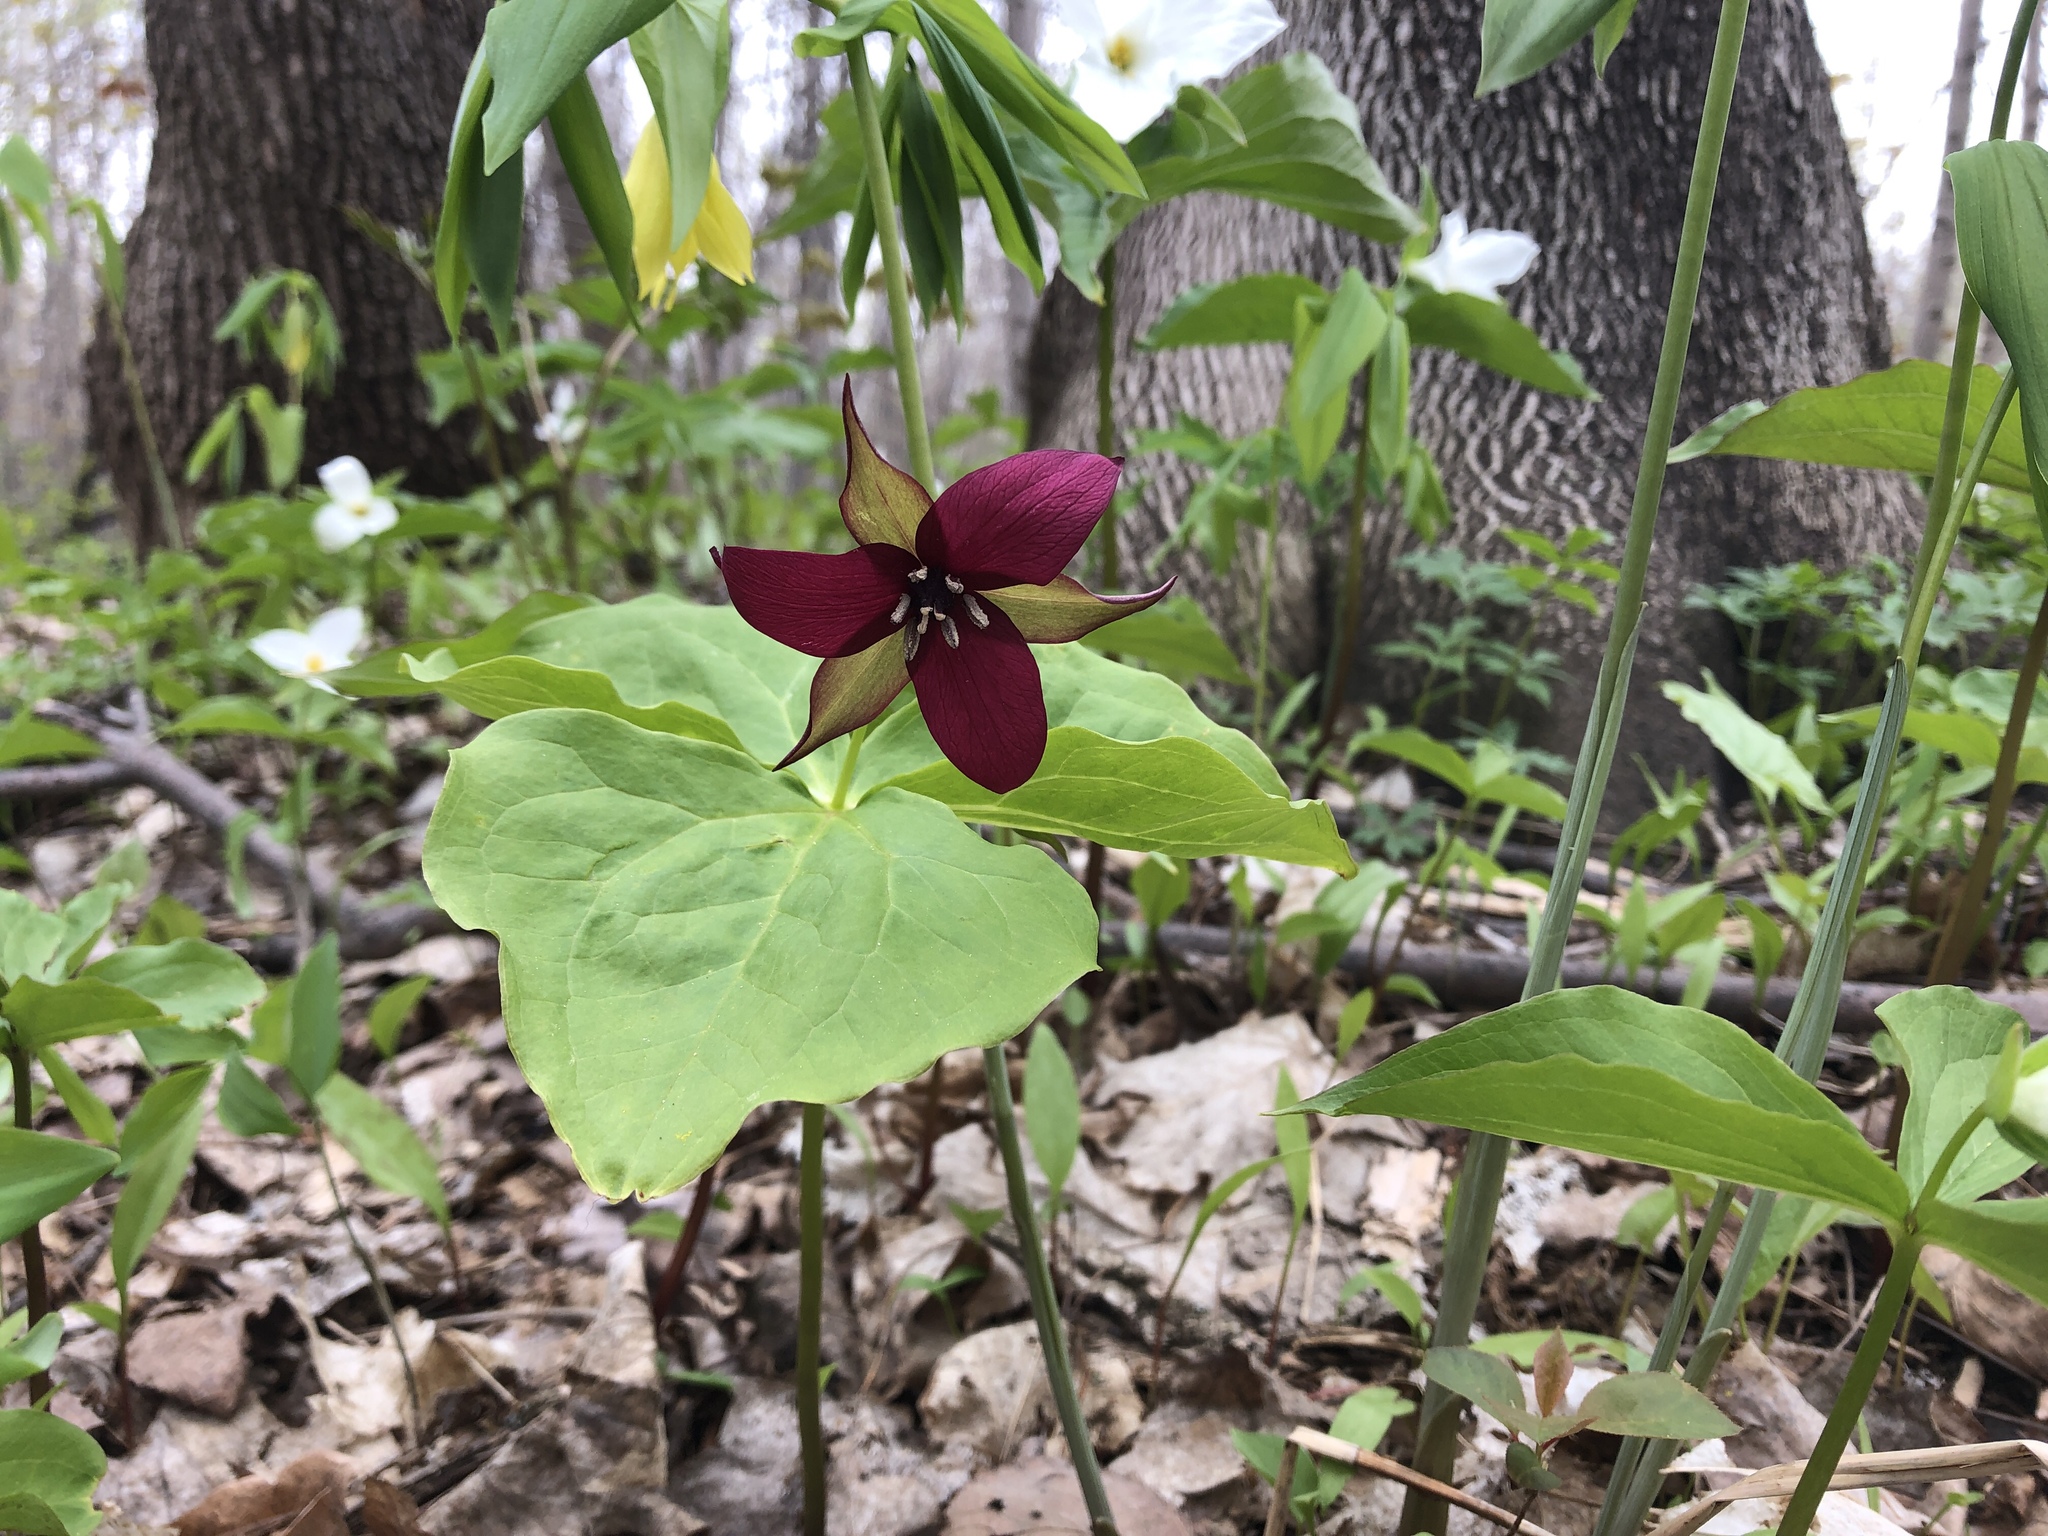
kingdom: Plantae
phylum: Tracheophyta
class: Liliopsida
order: Liliales
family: Melanthiaceae
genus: Trillium
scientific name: Trillium erectum
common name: Purple trillium
